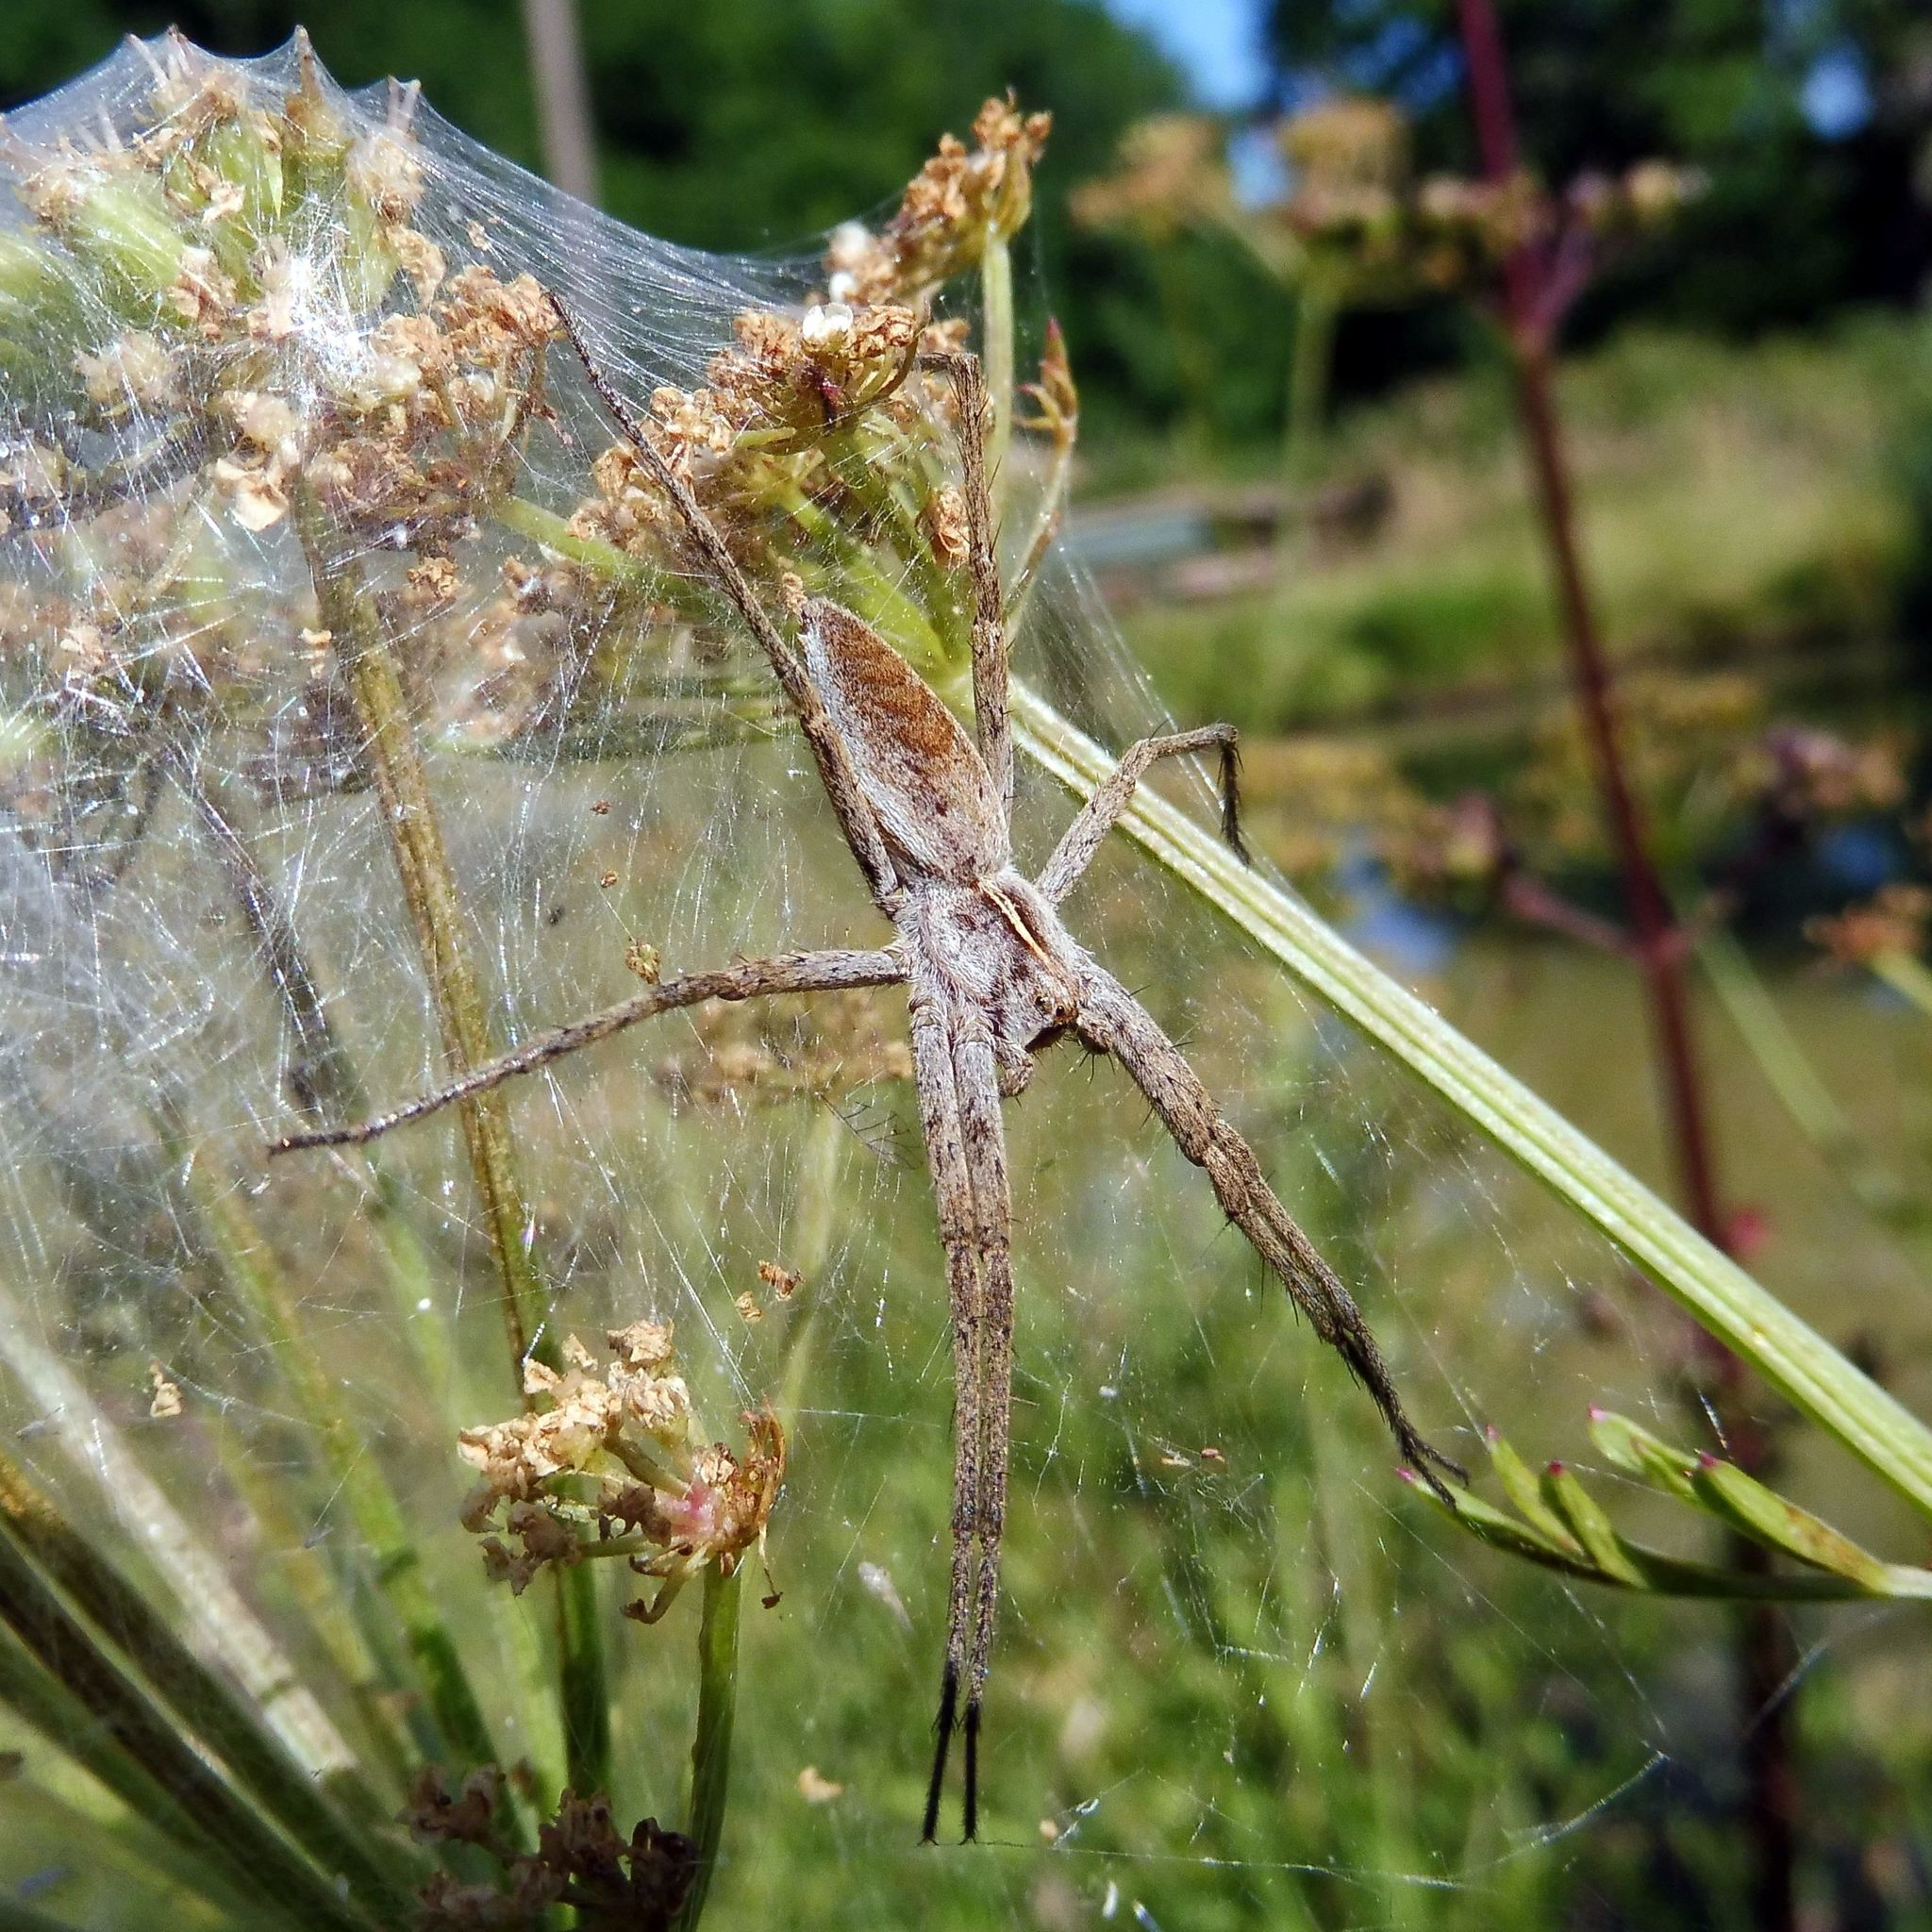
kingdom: Animalia
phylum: Arthropoda
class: Arachnida
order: Araneae
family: Pisauridae
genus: Pisaura
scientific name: Pisaura mirabilis
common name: Tent spider
